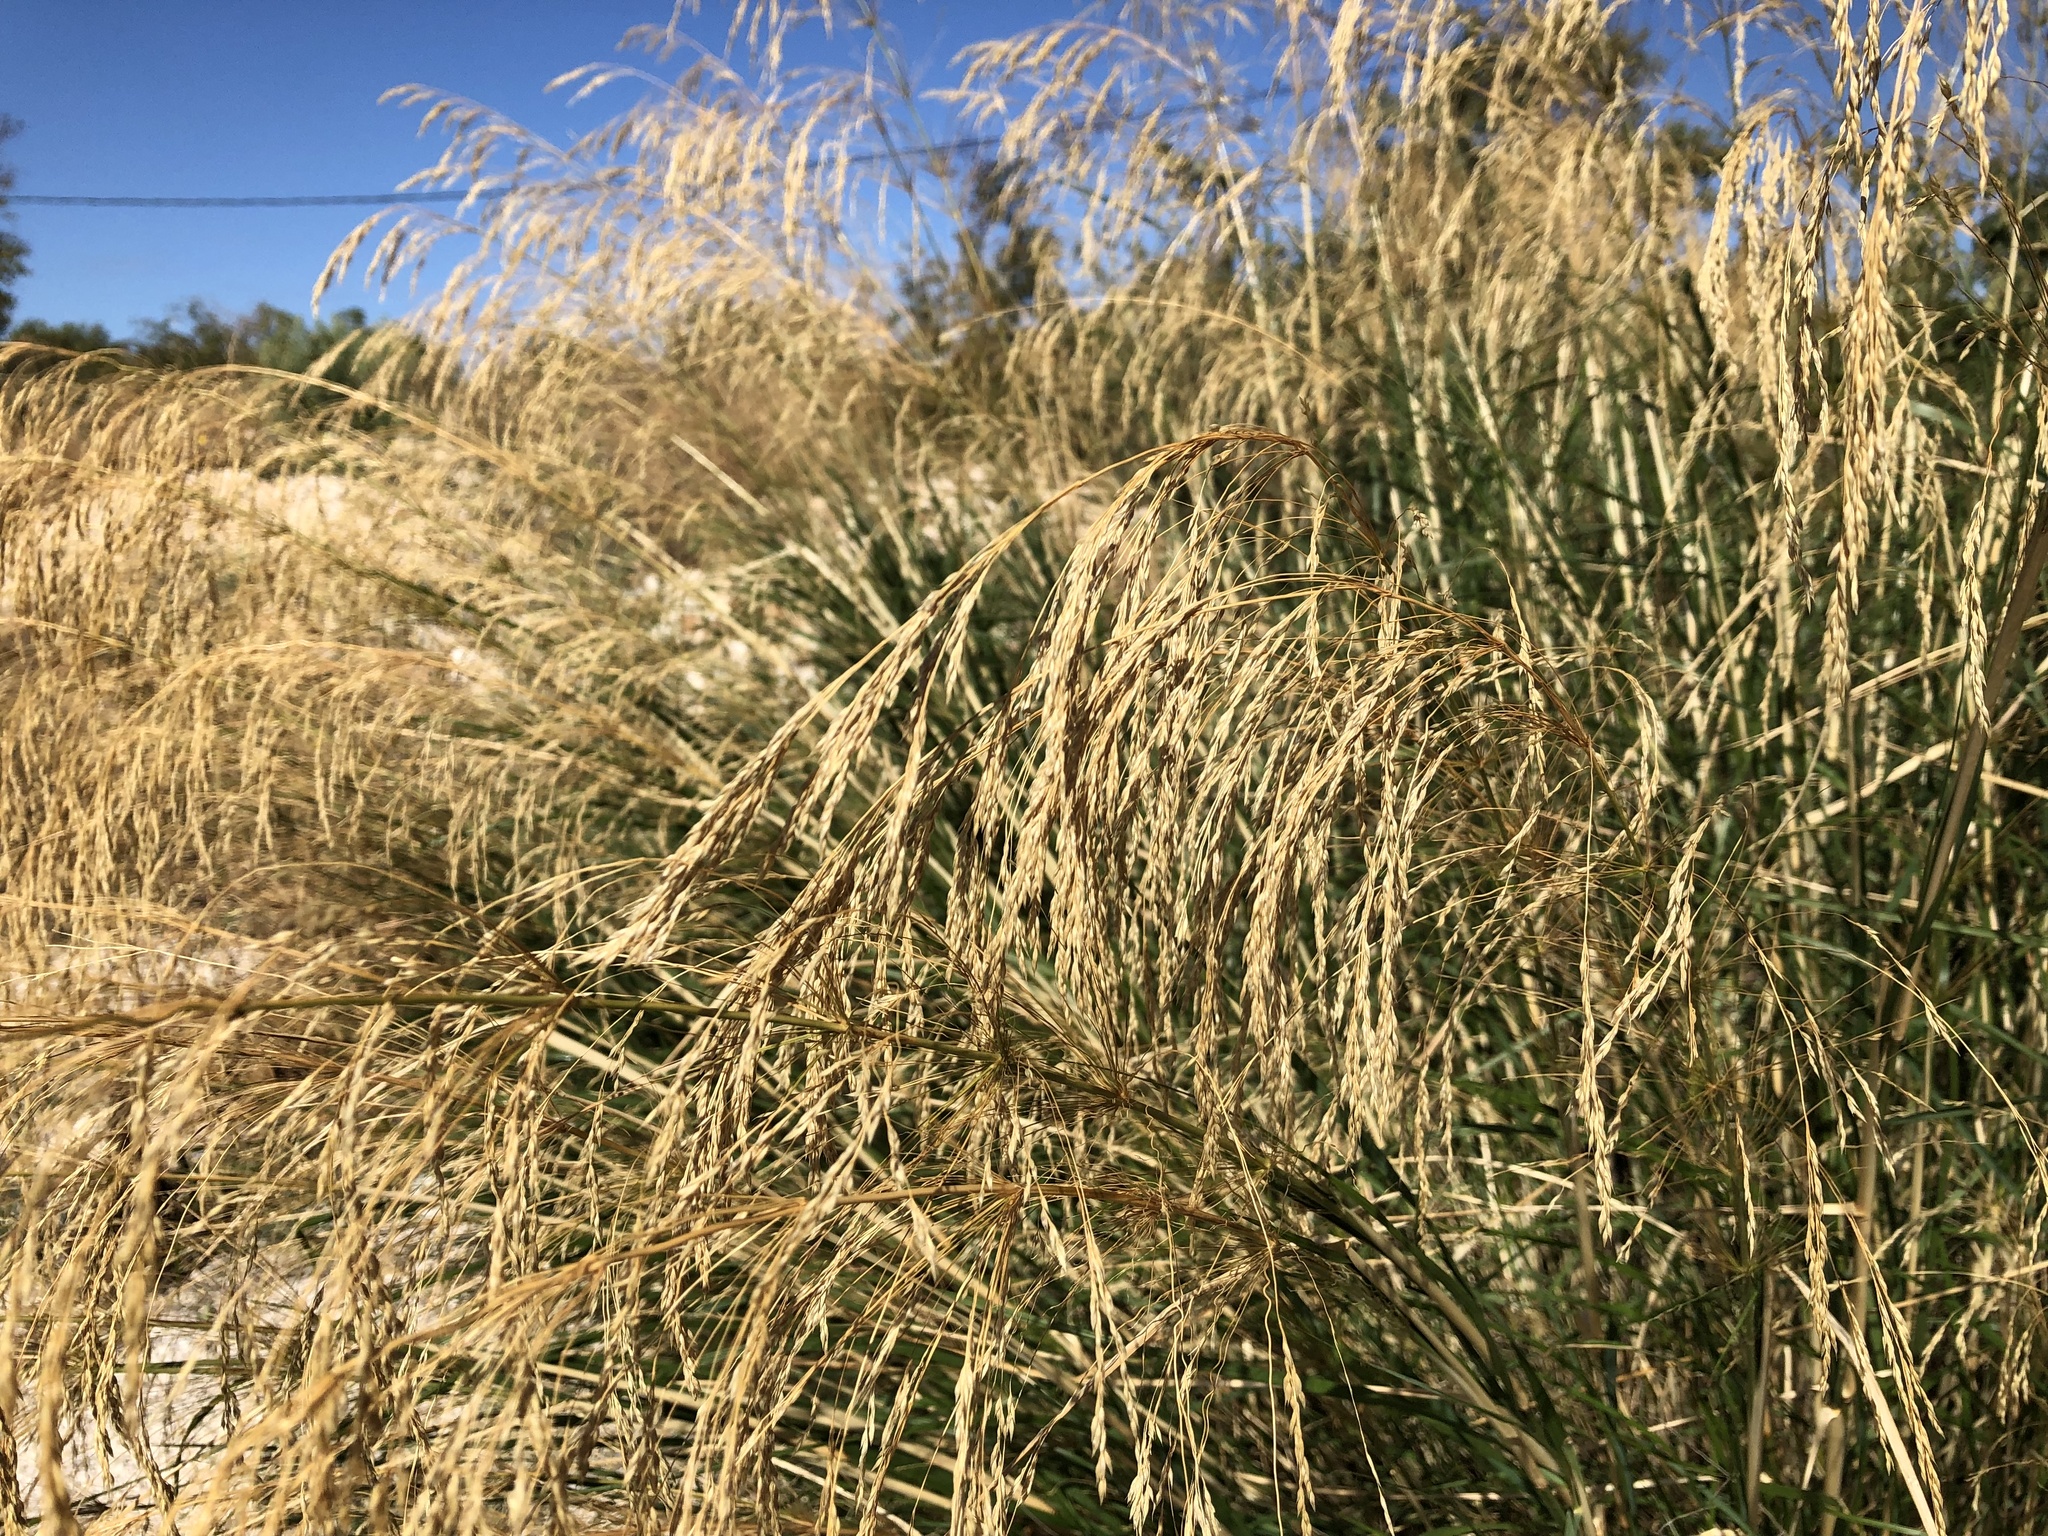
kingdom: Plantae
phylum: Tracheophyta
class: Liliopsida
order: Poales
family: Poaceae
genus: Oloptum
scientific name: Oloptum thomasii
